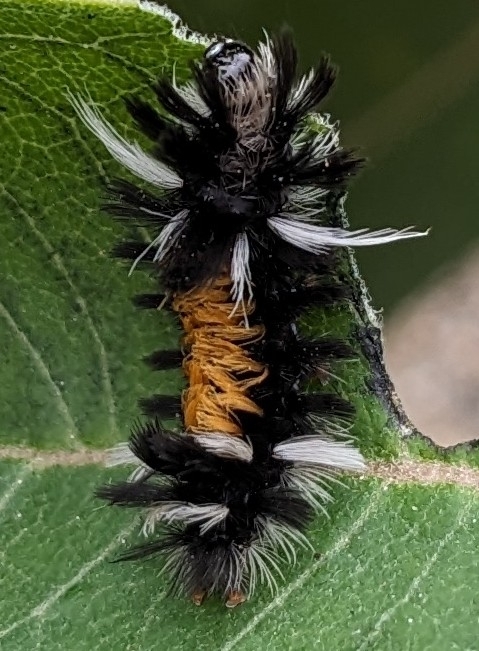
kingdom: Animalia
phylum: Arthropoda
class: Insecta
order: Lepidoptera
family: Erebidae
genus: Euchaetes
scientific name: Euchaetes egle
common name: Milkweed tussock moth
